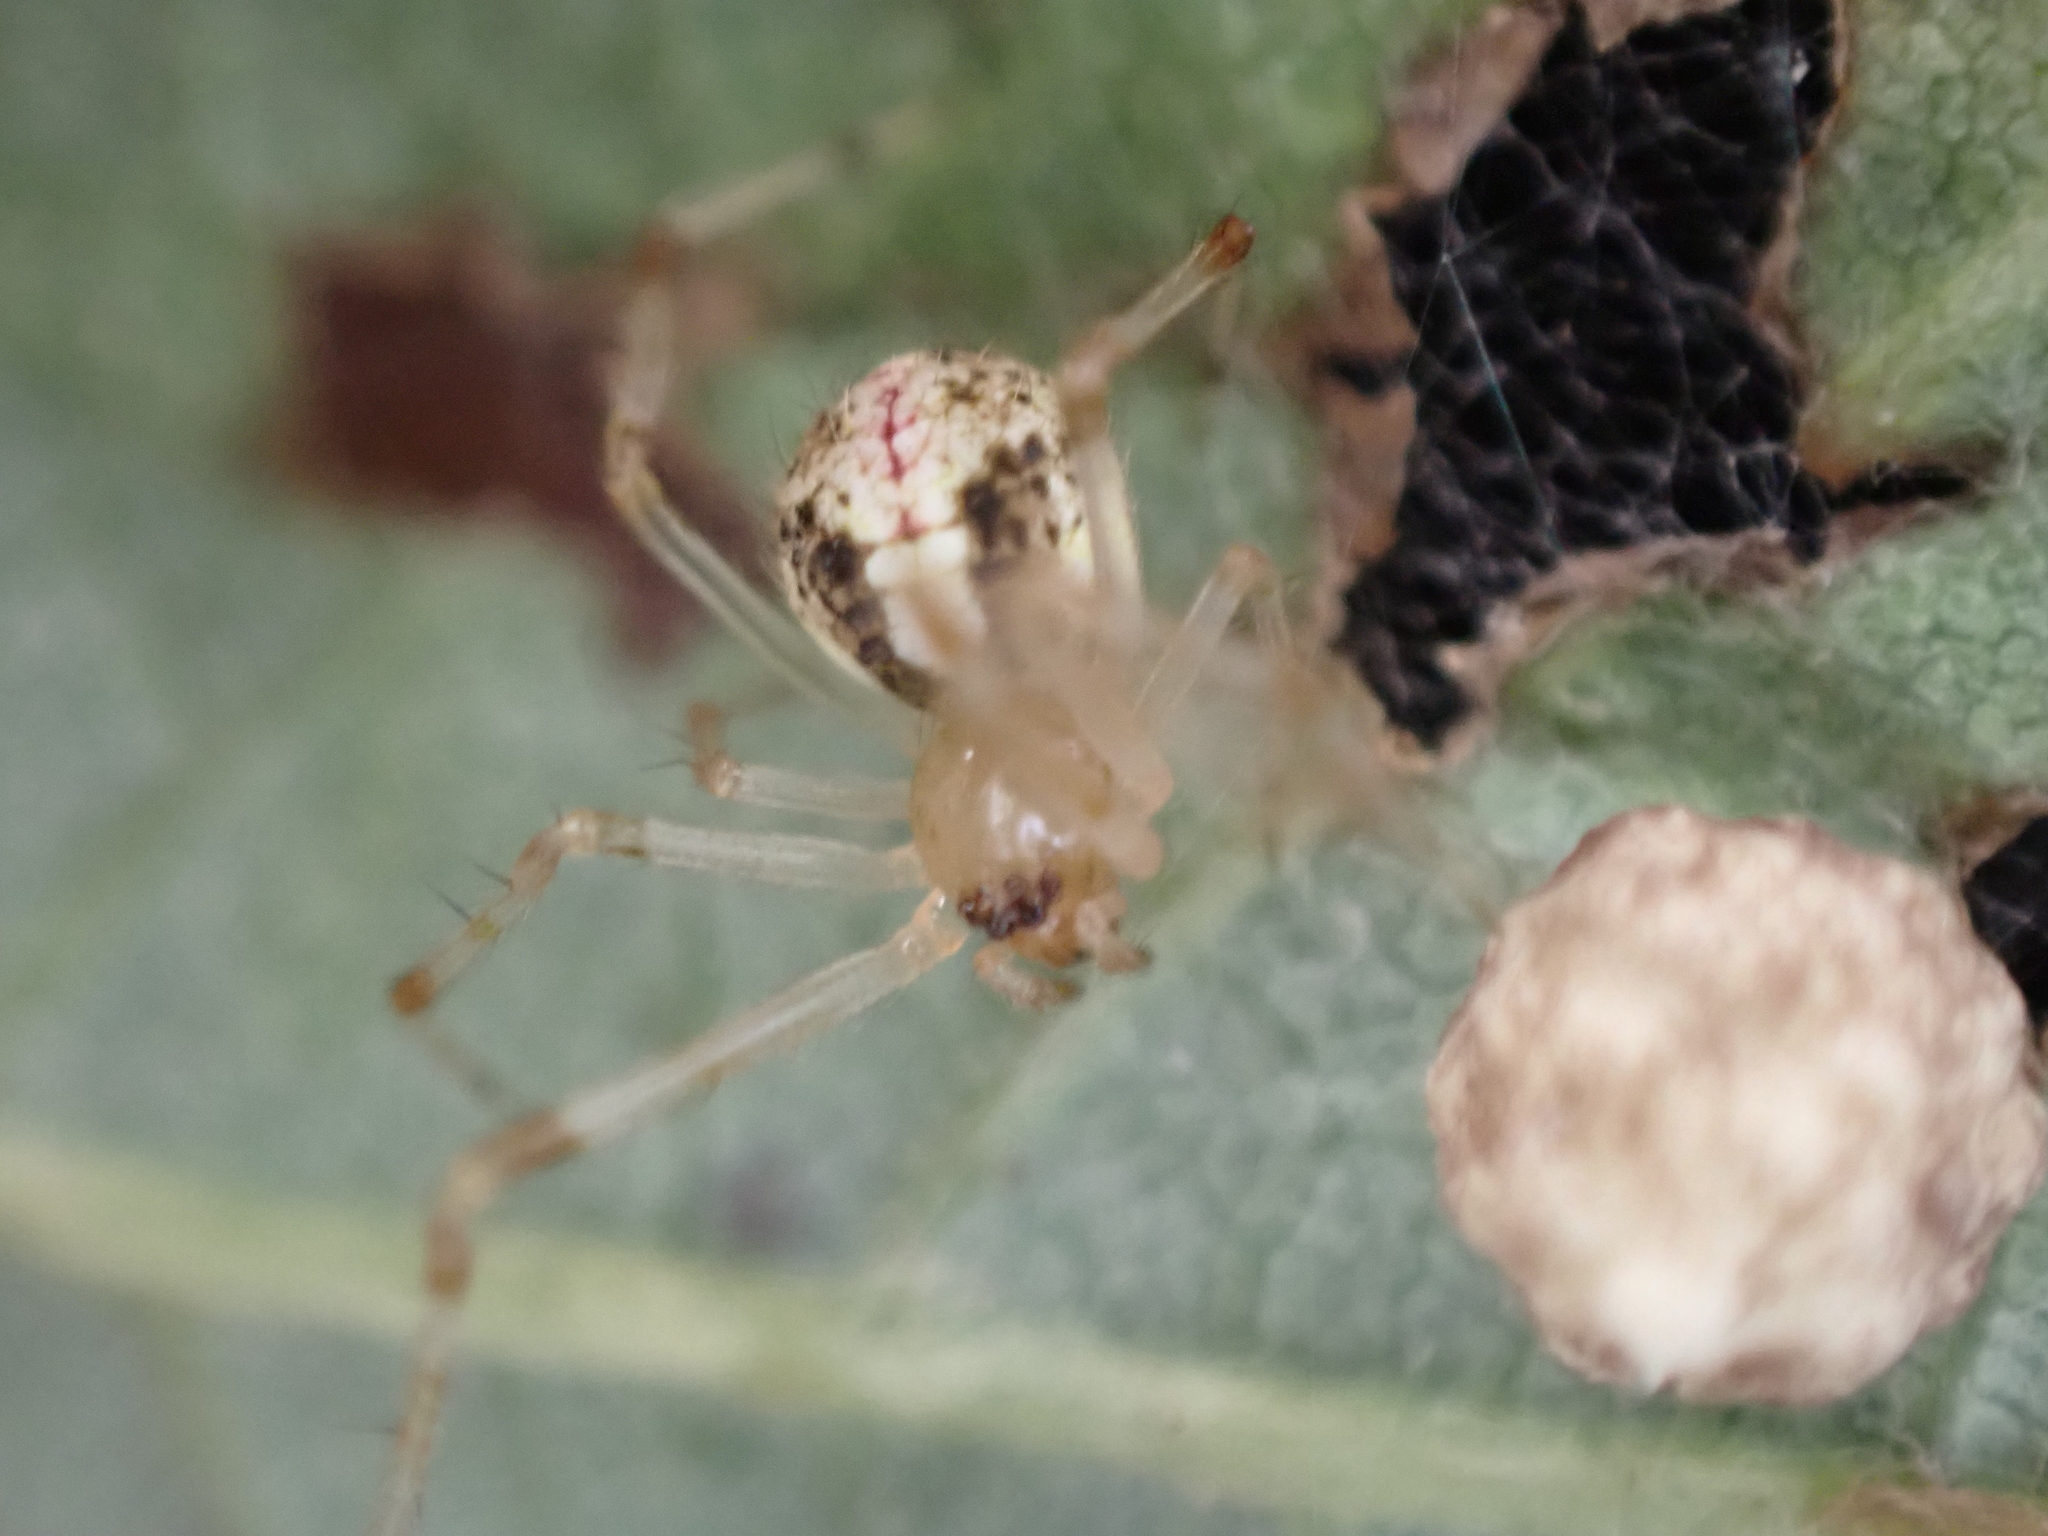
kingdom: Animalia
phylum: Arthropoda
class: Arachnida
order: Araneae
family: Theridiidae
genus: Yunohamella
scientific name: Yunohamella lyrica
